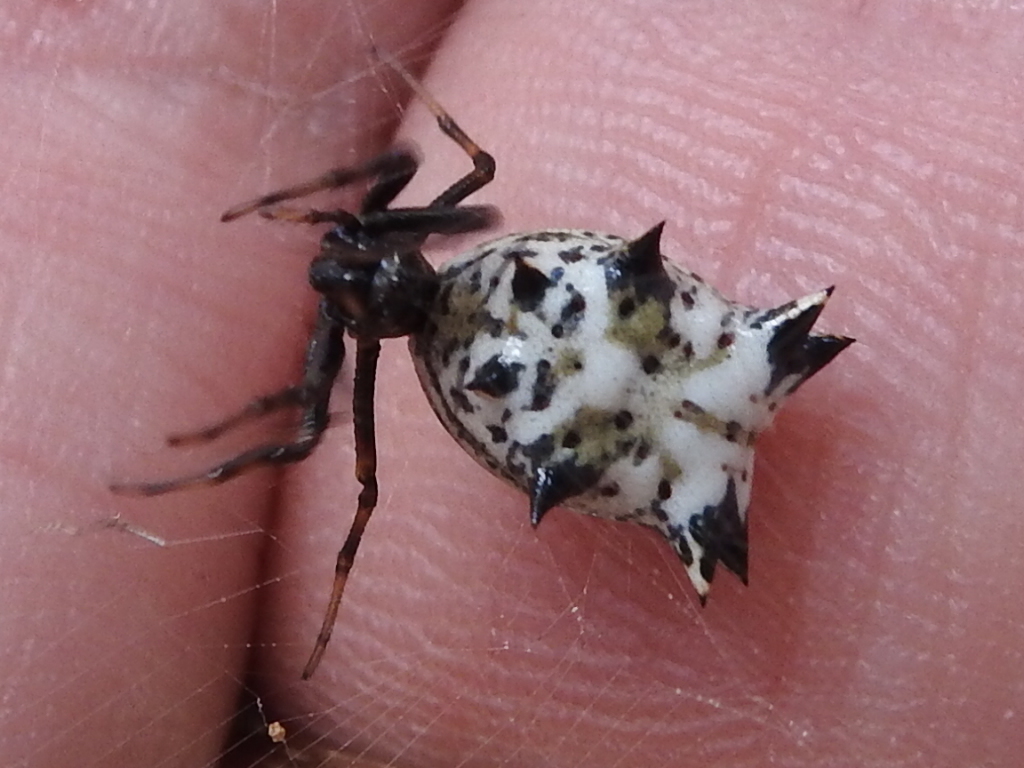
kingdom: Animalia
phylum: Arthropoda
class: Arachnida
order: Araneae
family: Araneidae
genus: Micrathena
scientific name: Micrathena gracilis
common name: Orb weavers
